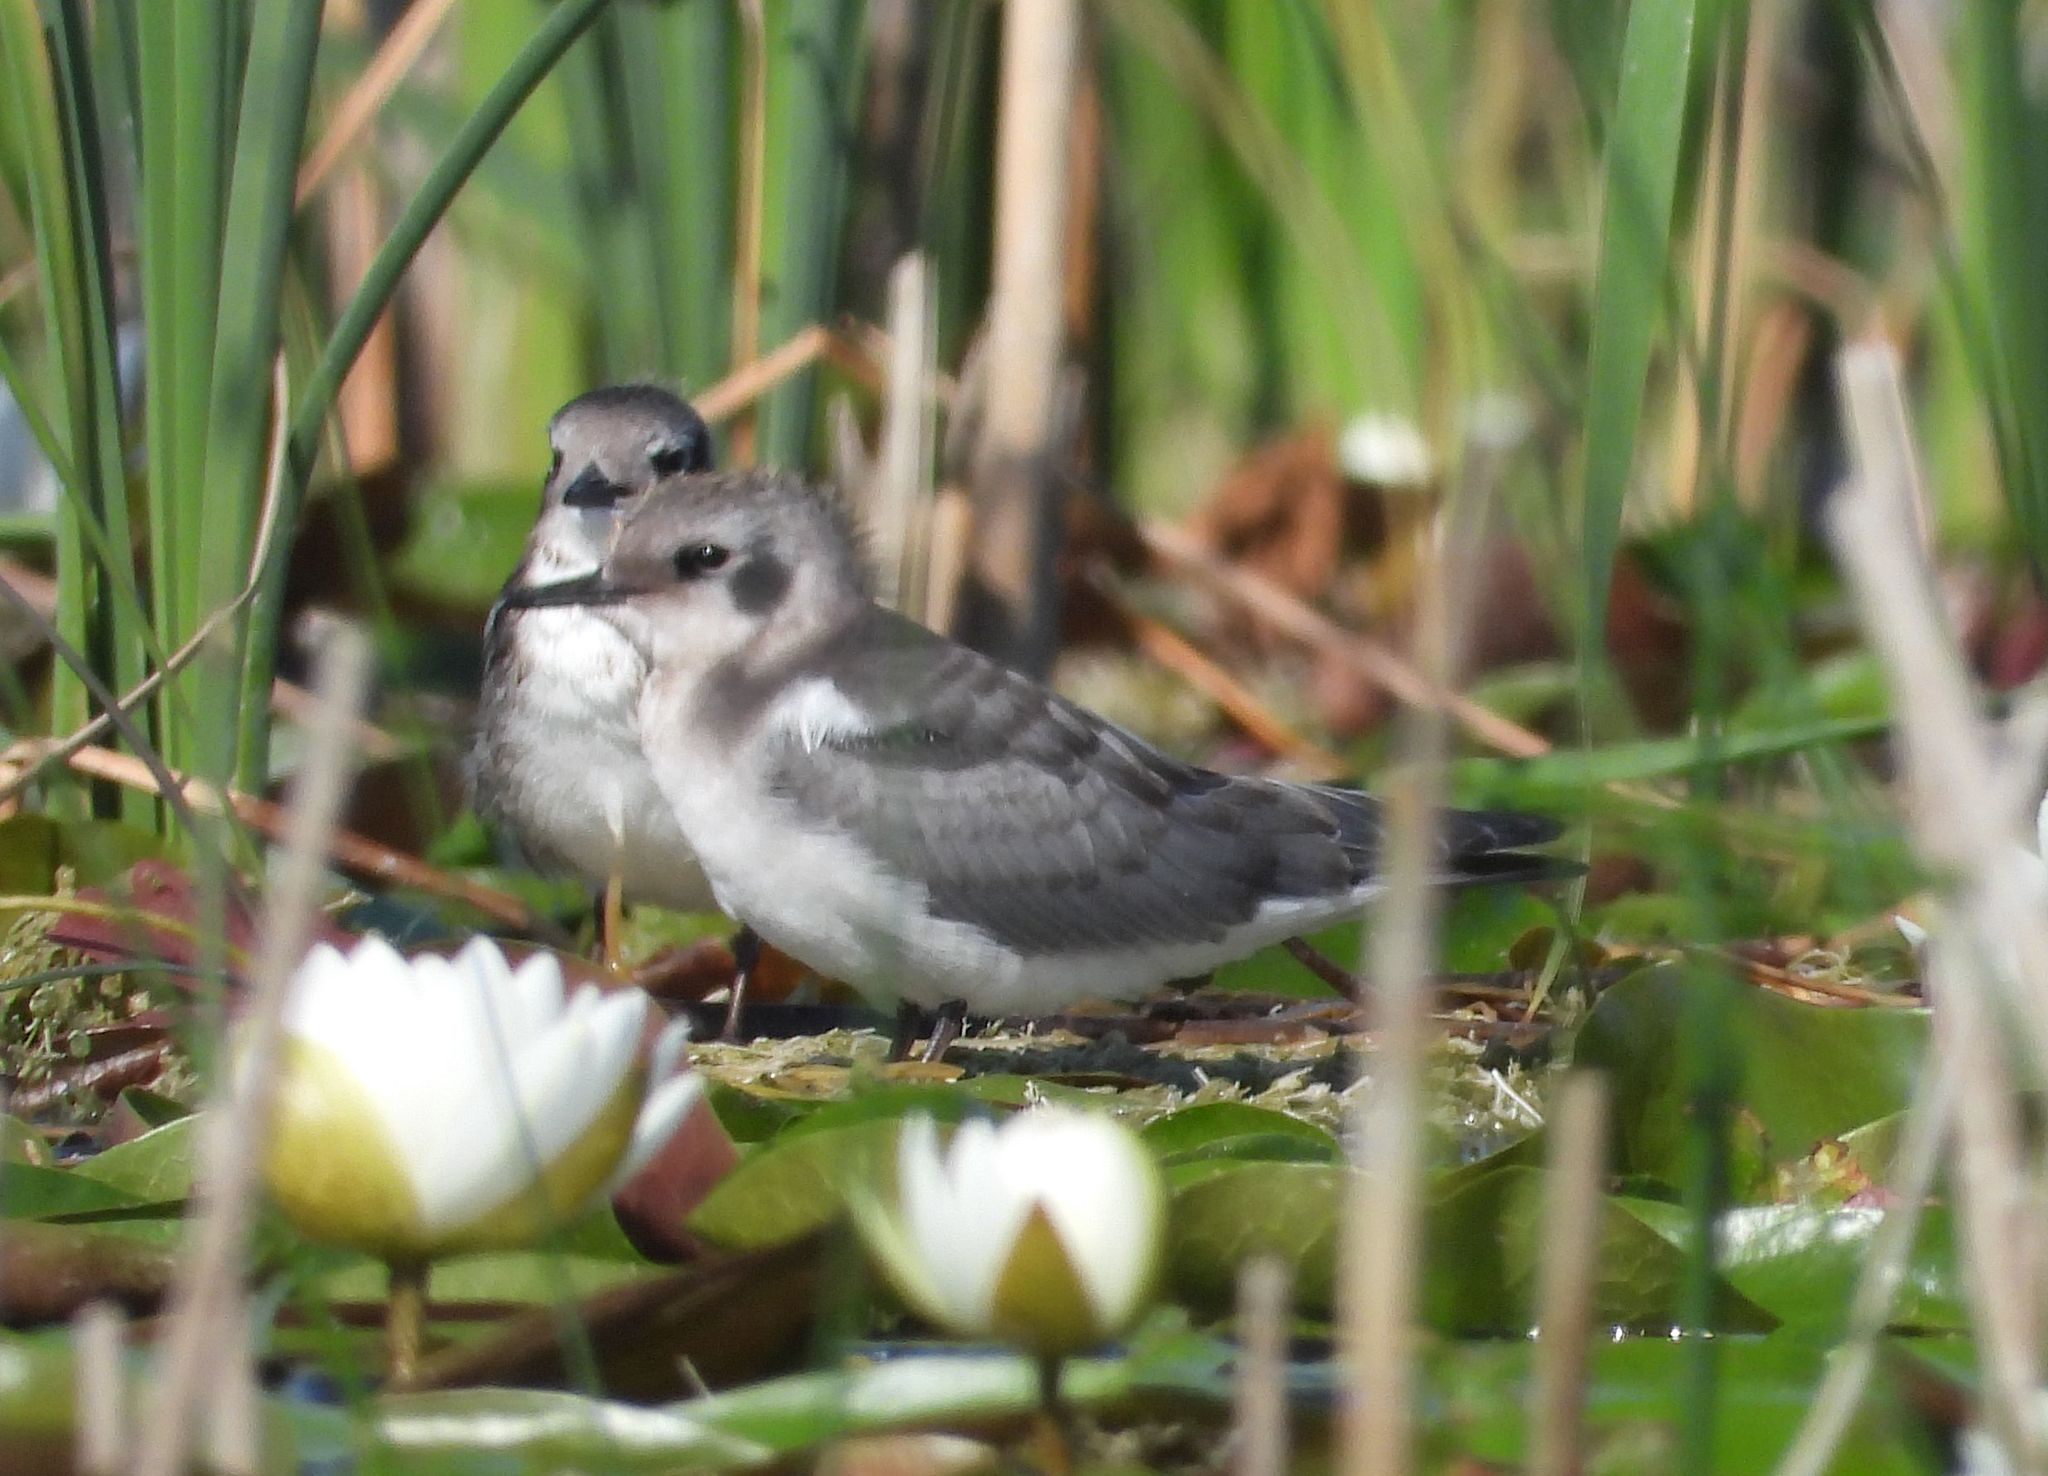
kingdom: Animalia
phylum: Chordata
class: Aves
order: Charadriiformes
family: Laridae
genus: Chlidonias
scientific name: Chlidonias niger
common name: Black tern
